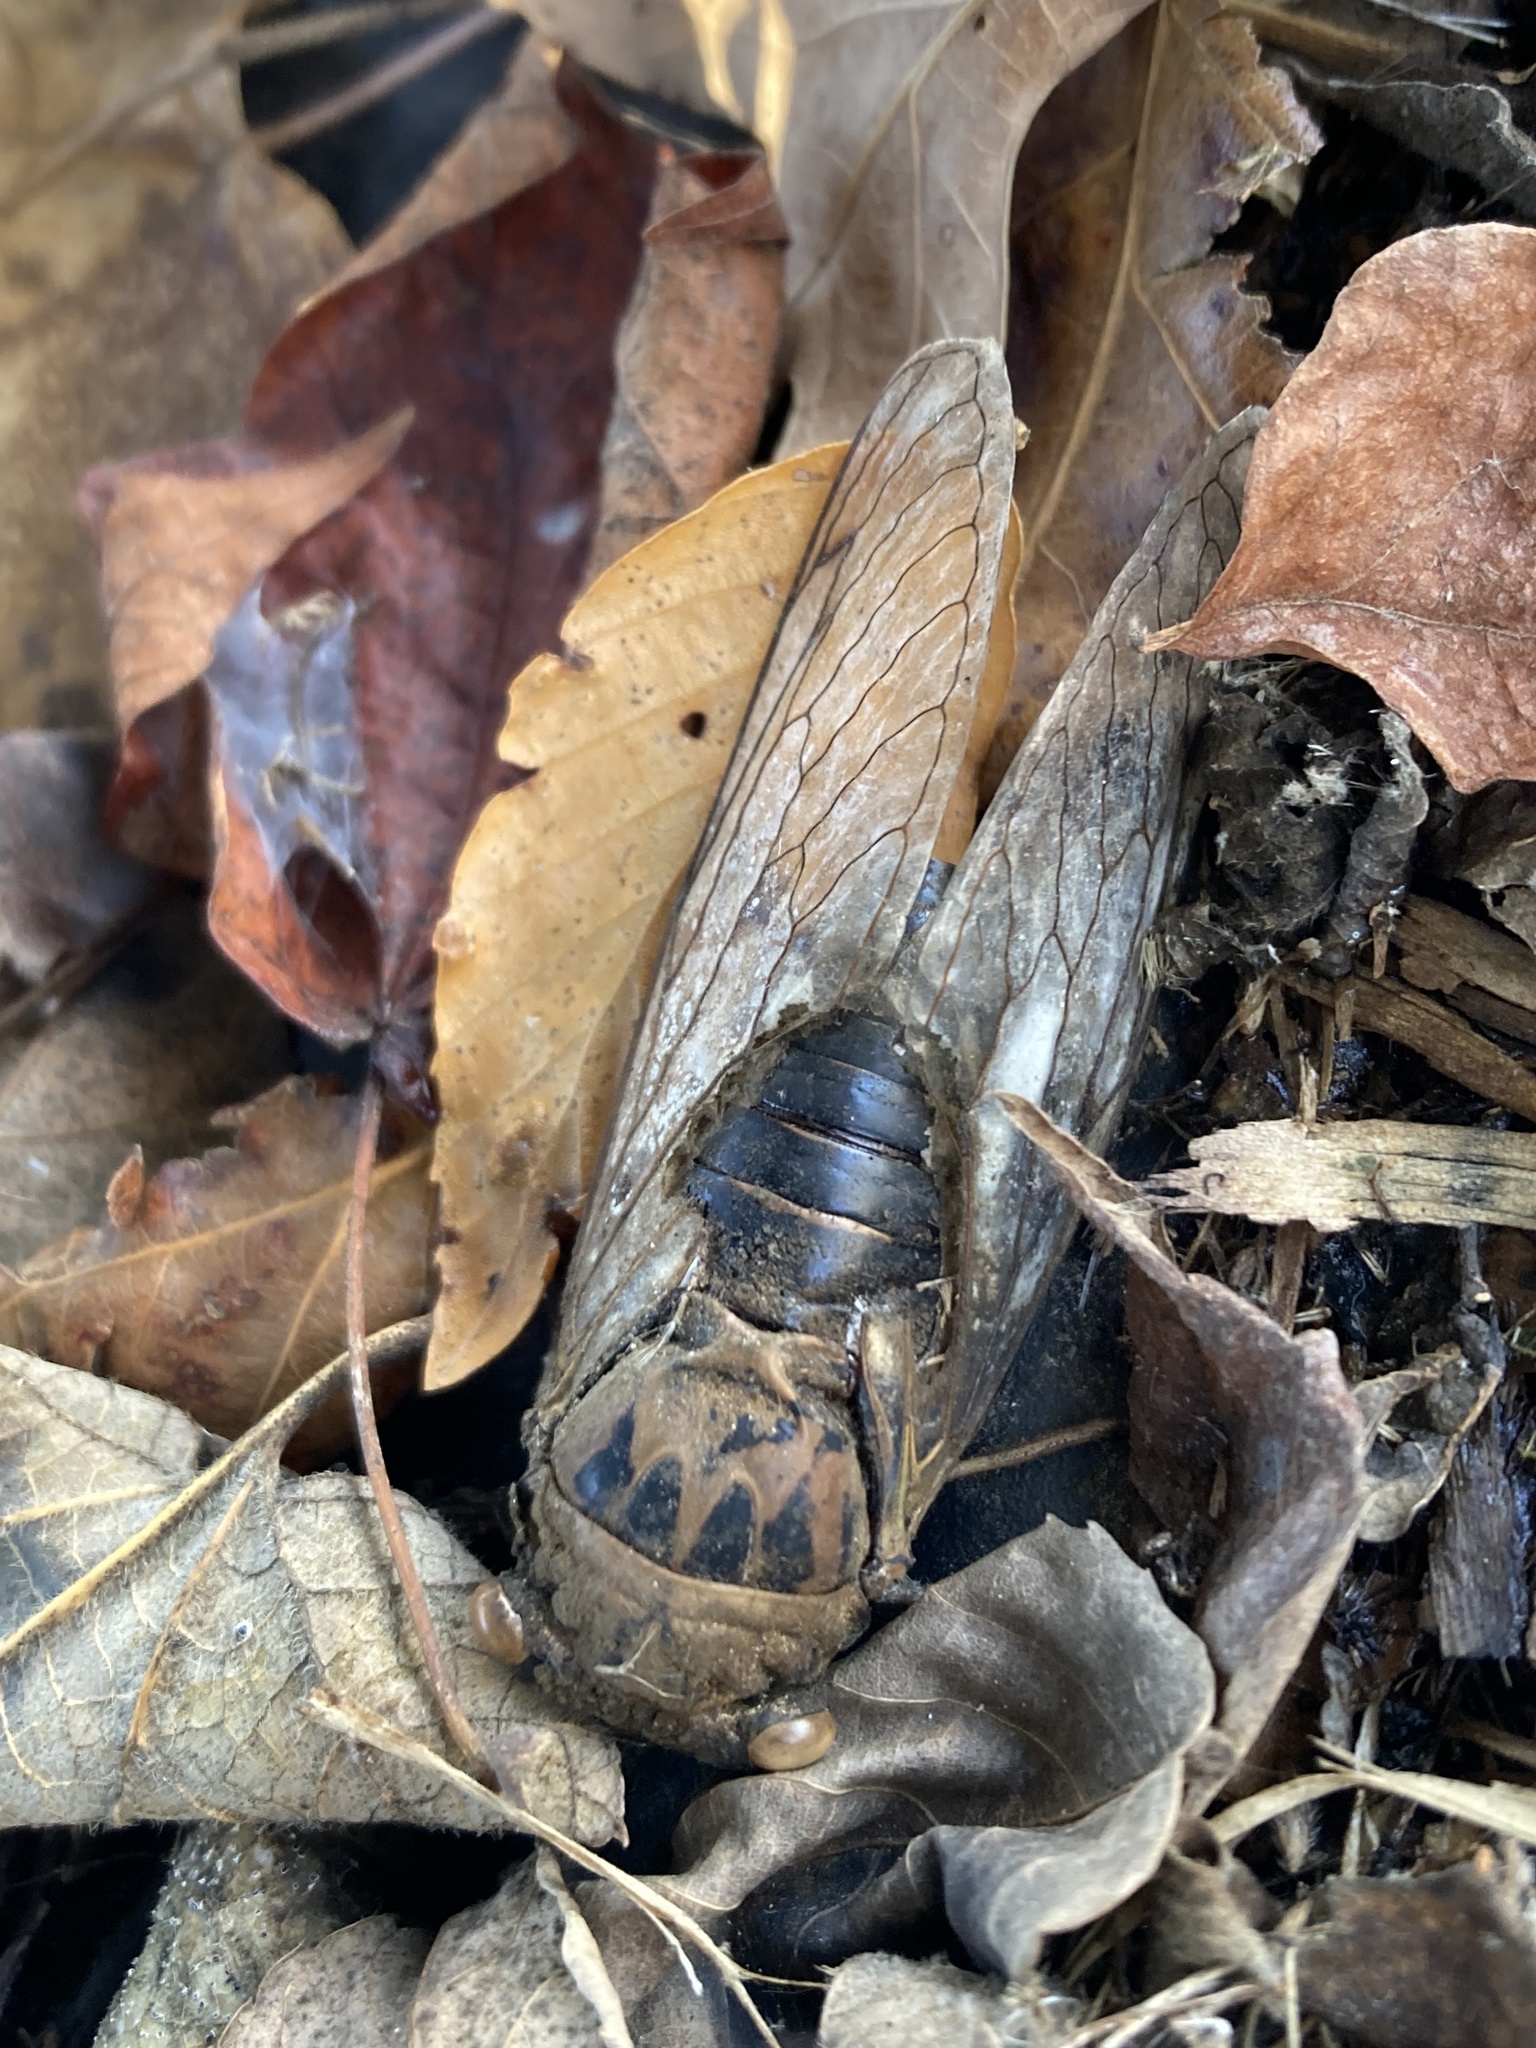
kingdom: Animalia
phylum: Arthropoda
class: Insecta
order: Hemiptera
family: Cicadidae
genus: Neotibicen
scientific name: Neotibicen pruinosus
